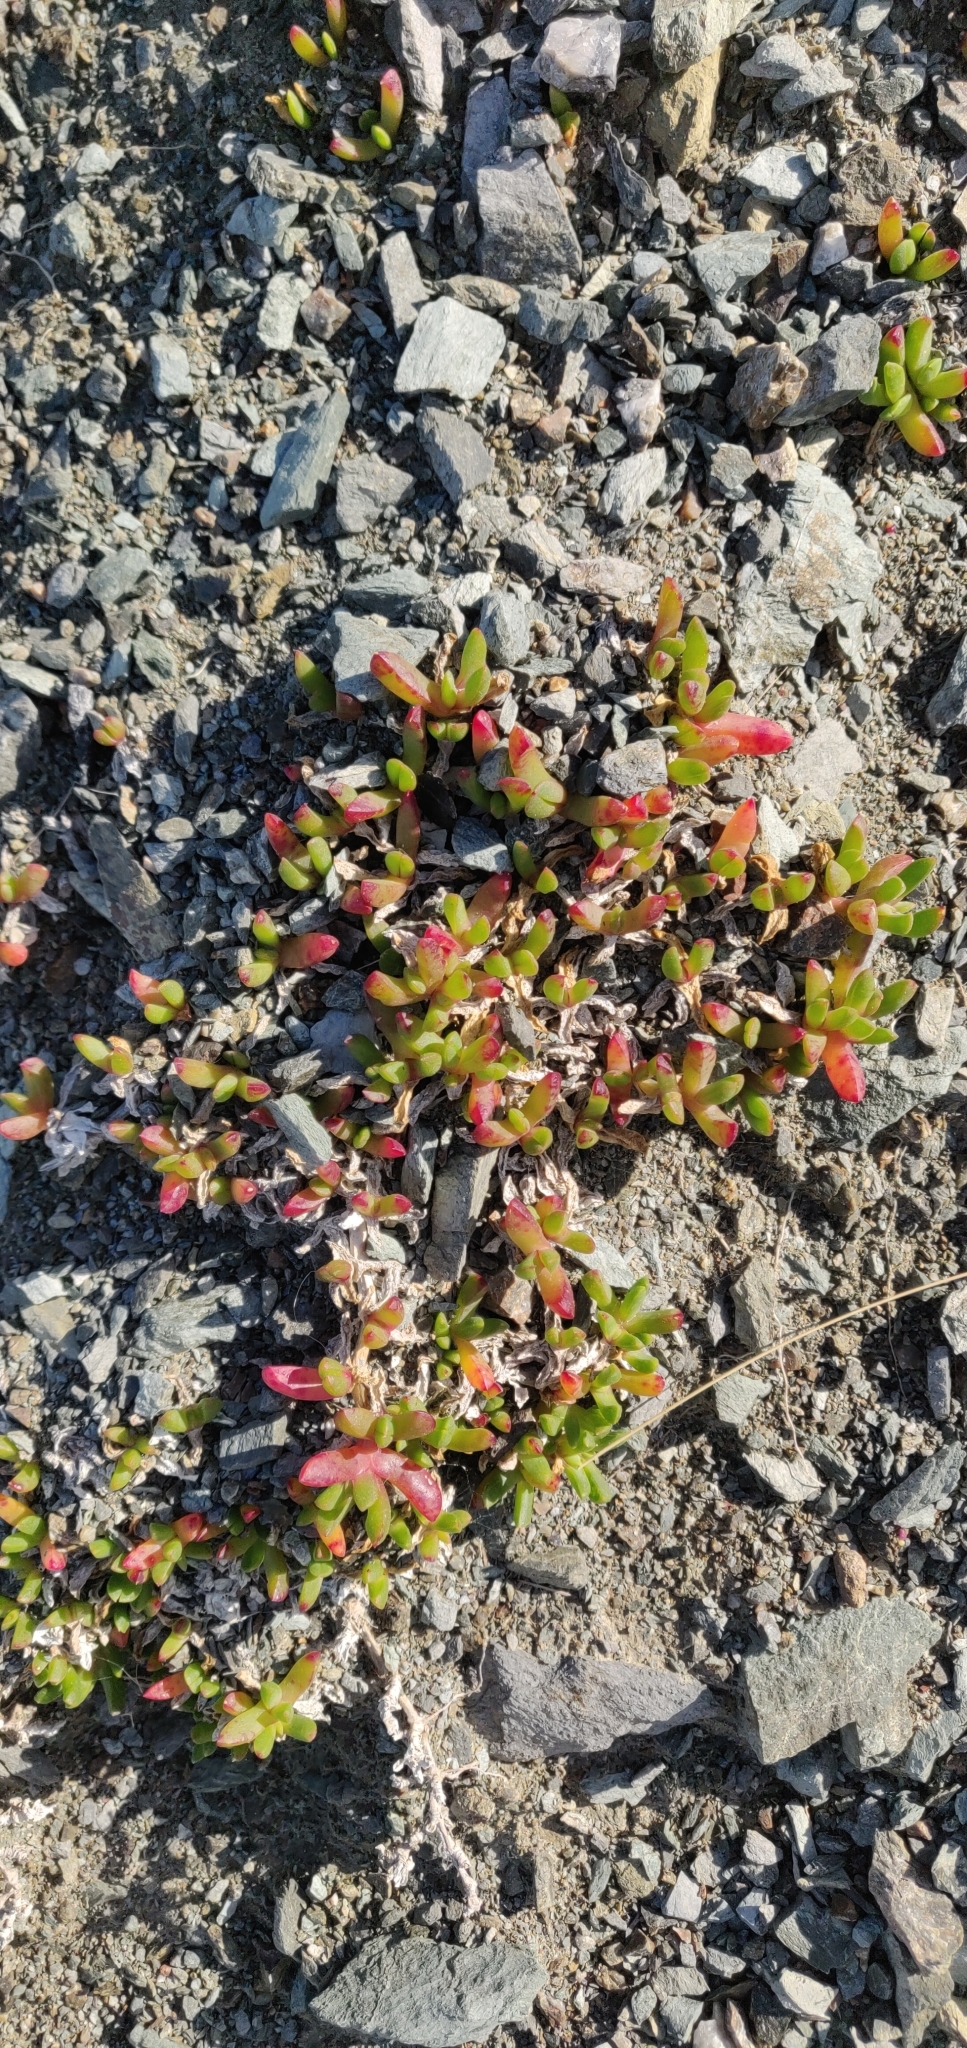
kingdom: Plantae
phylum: Tracheophyta
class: Magnoliopsida
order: Caryophyllales
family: Aizoaceae
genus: Disphyma
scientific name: Disphyma australe
